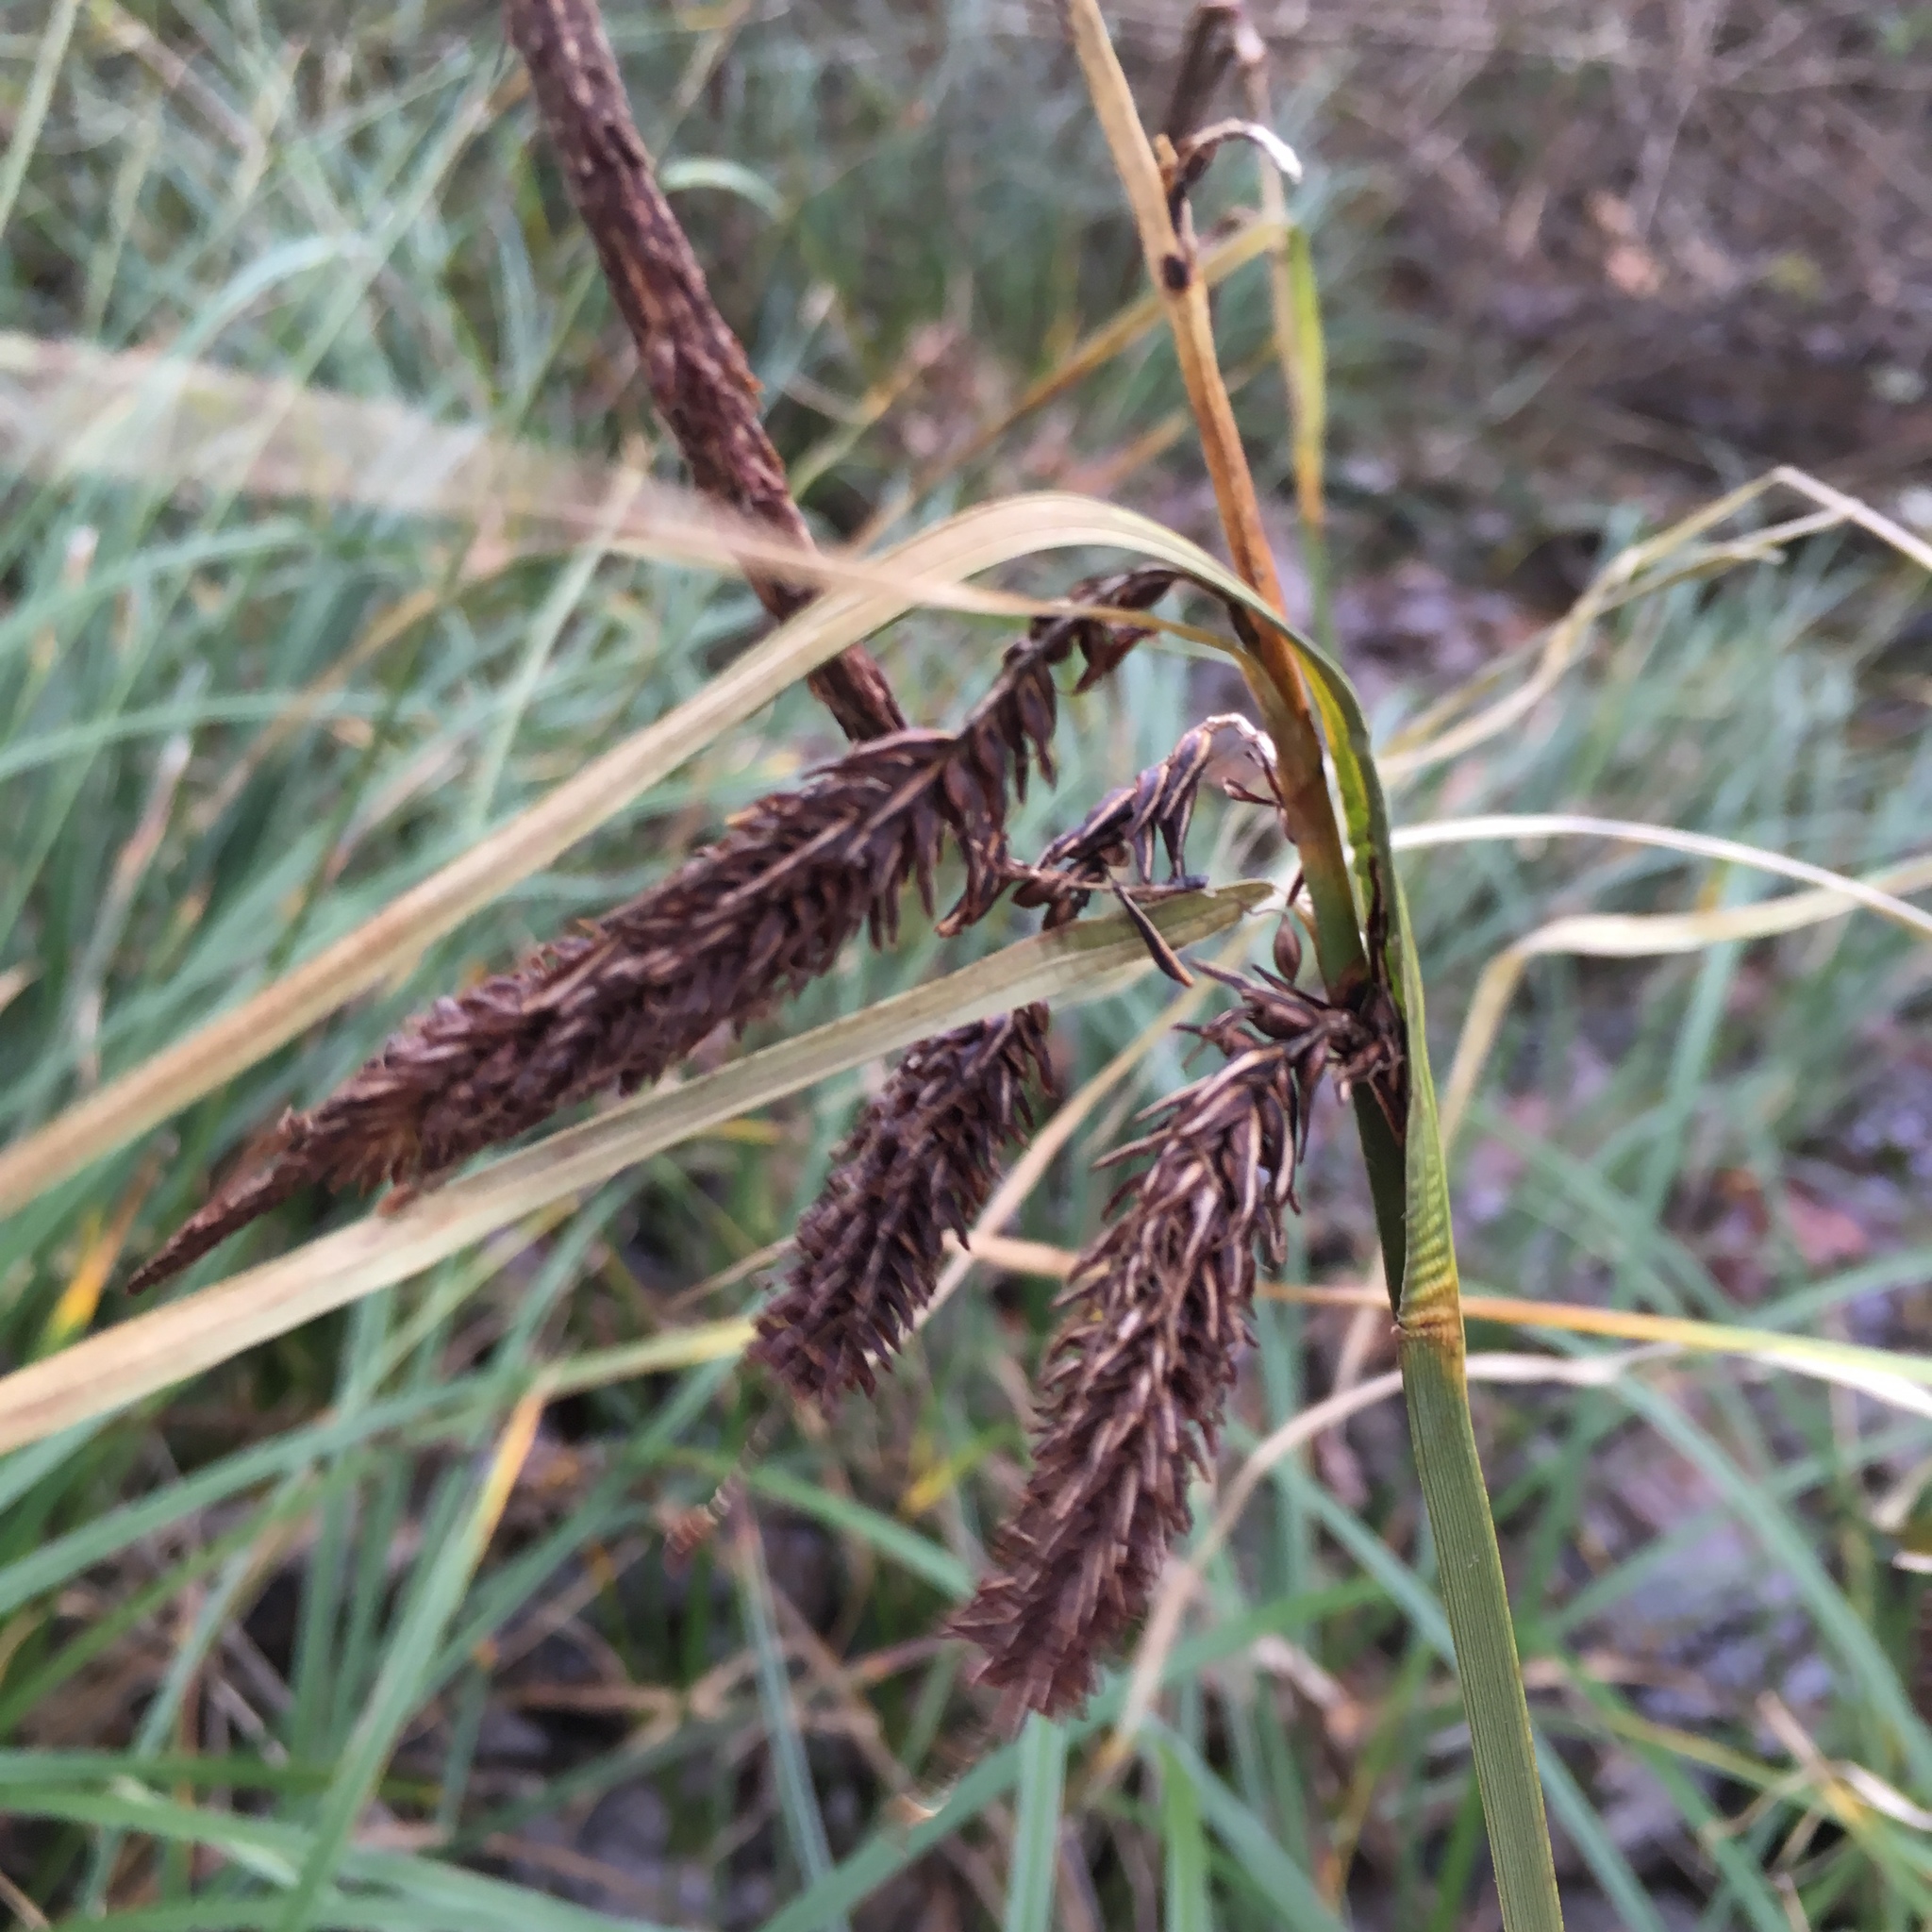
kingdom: Plantae
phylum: Tracheophyta
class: Liliopsida
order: Poales
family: Cyperaceae
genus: Carex
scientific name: Carex obnupta
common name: Slough sedge
